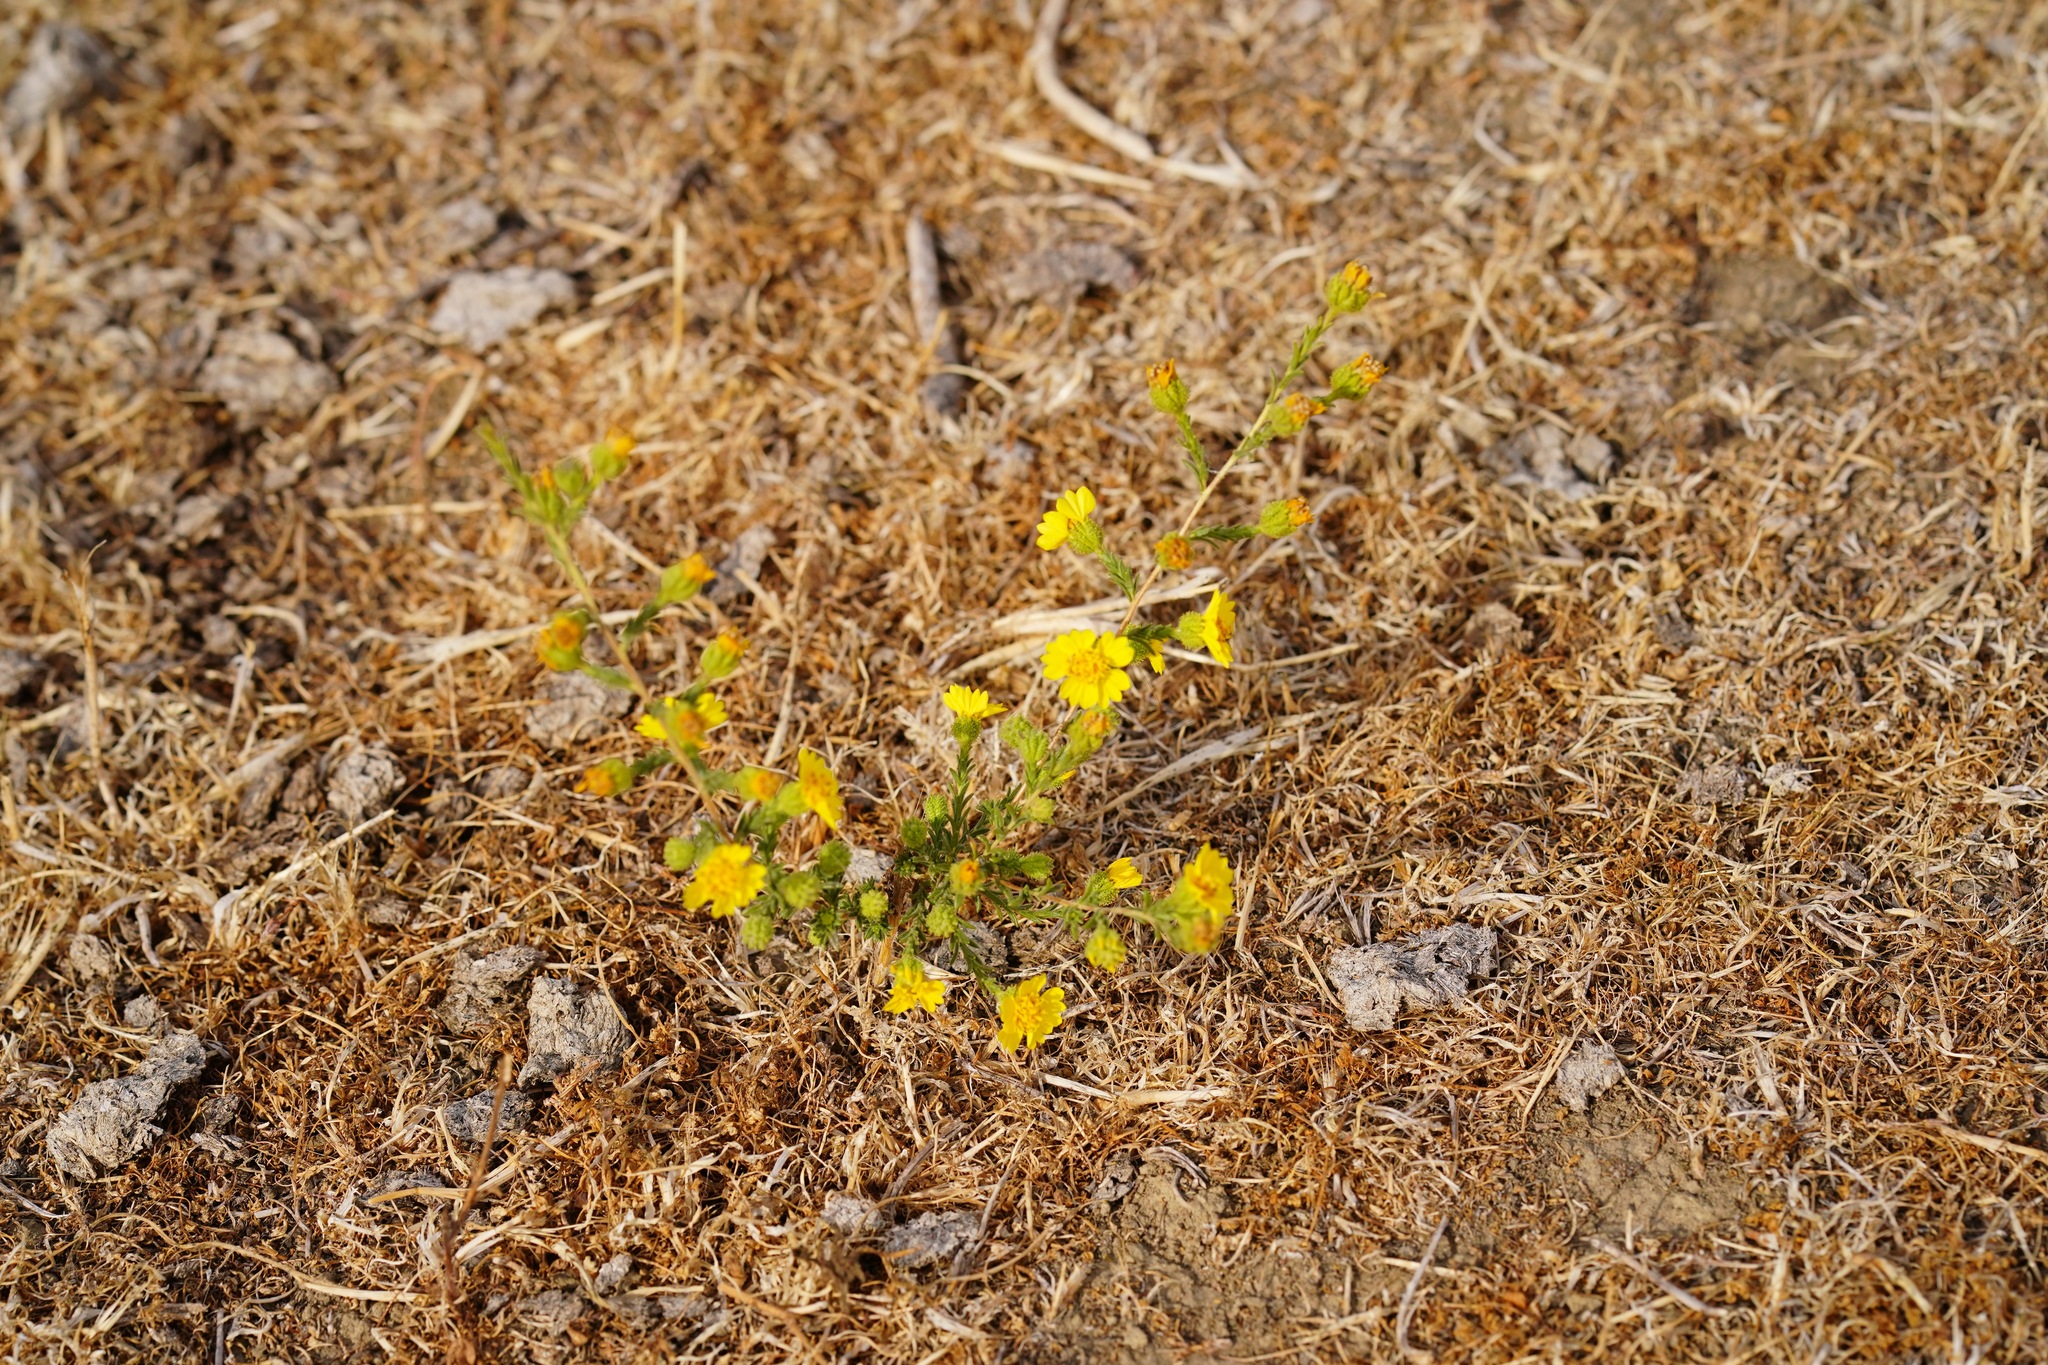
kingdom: Plantae
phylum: Tracheophyta
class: Magnoliopsida
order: Asterales
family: Asteraceae
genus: Holocarpha
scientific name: Holocarpha heermannii
